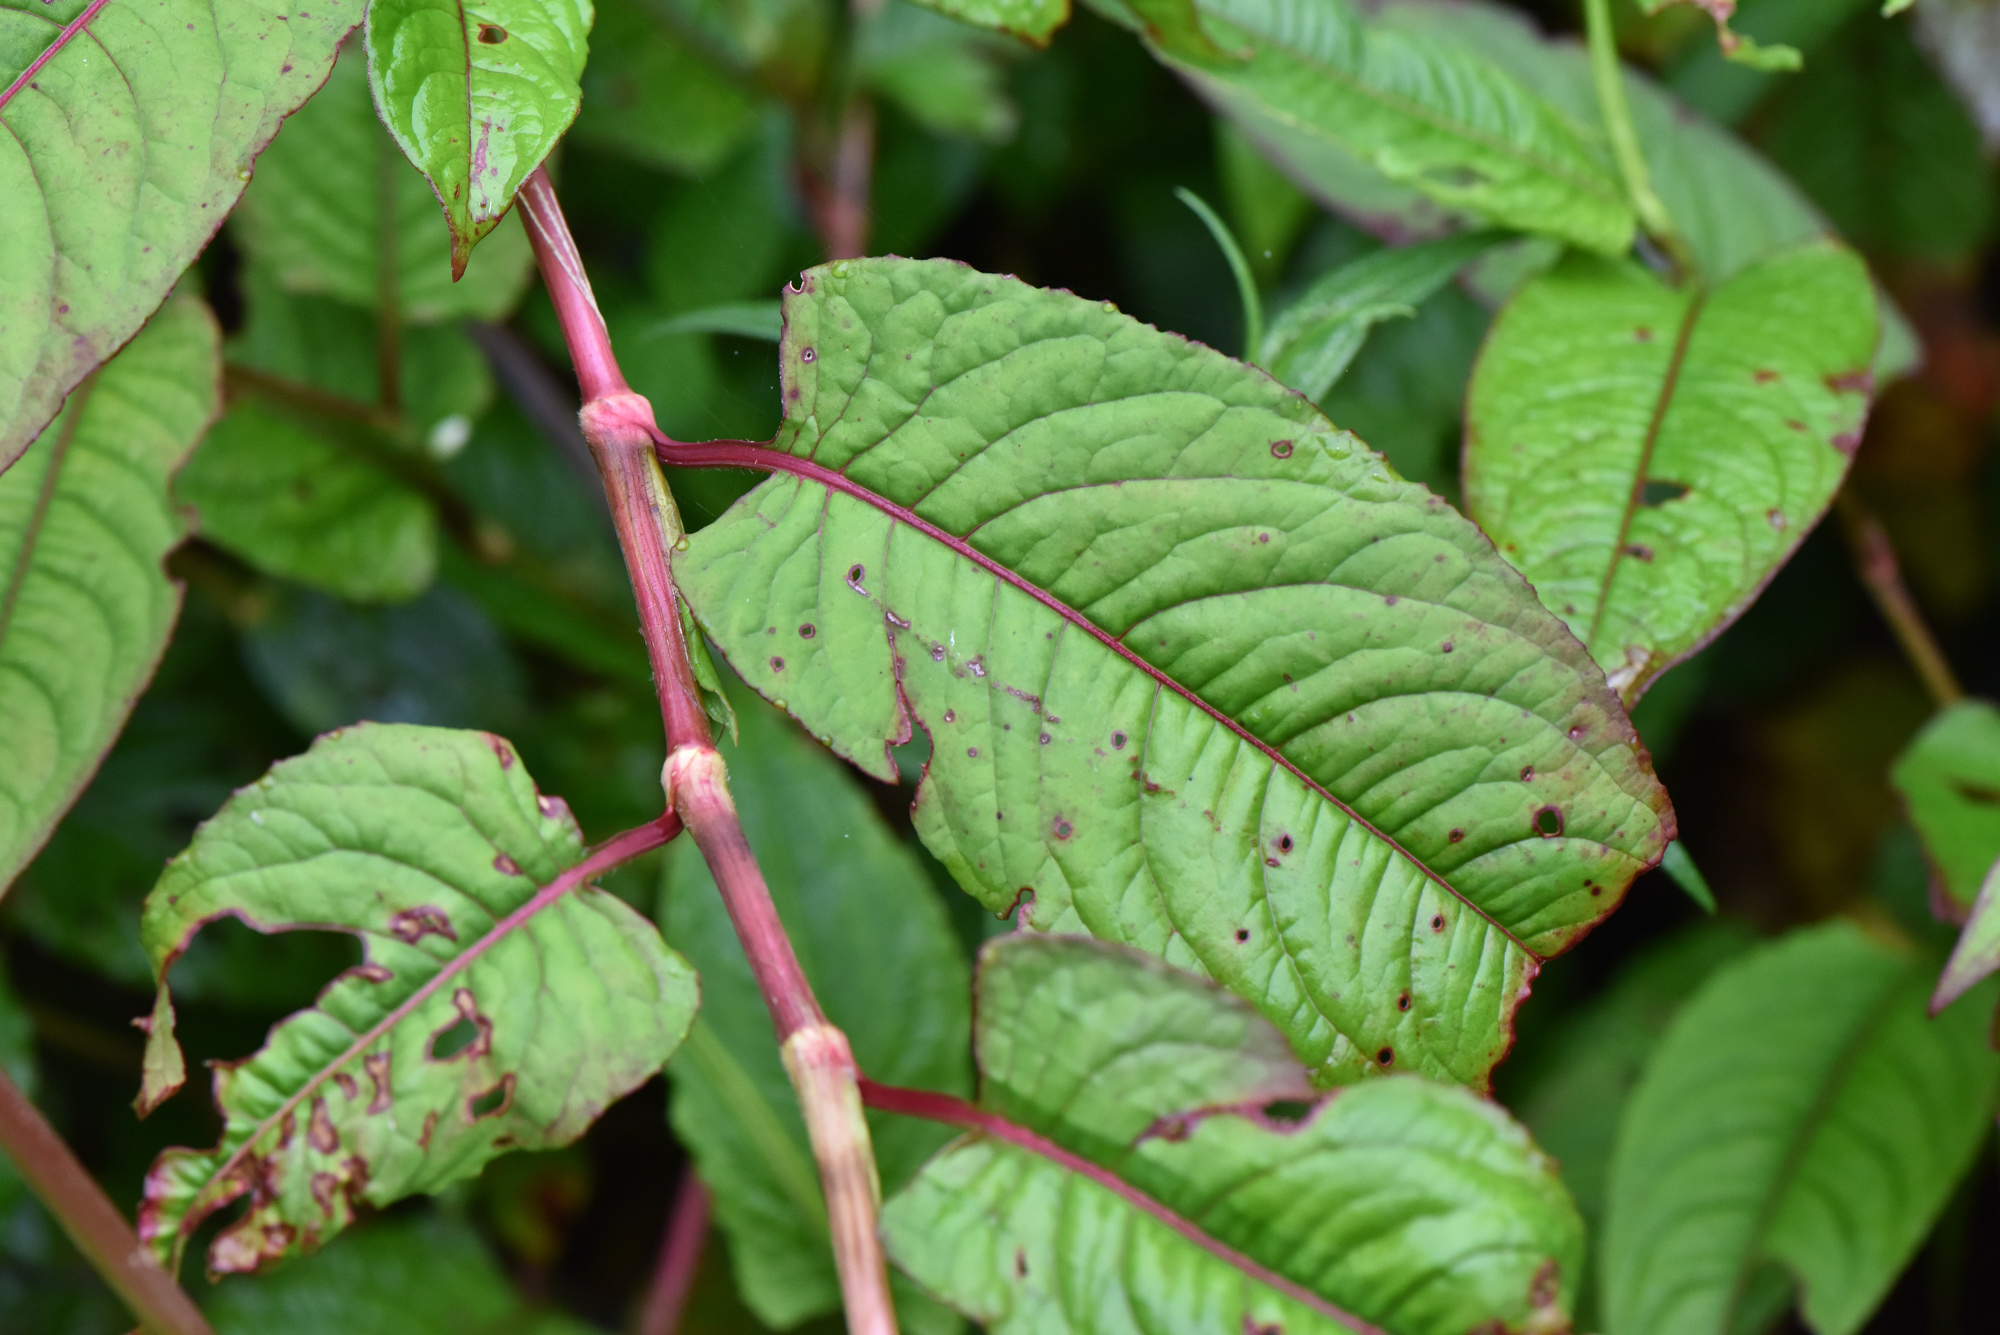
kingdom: Plantae
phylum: Tracheophyta
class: Magnoliopsida
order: Caryophyllales
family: Polygonaceae
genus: Persicaria
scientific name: Persicaria chinensis
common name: Chinese knotweed
